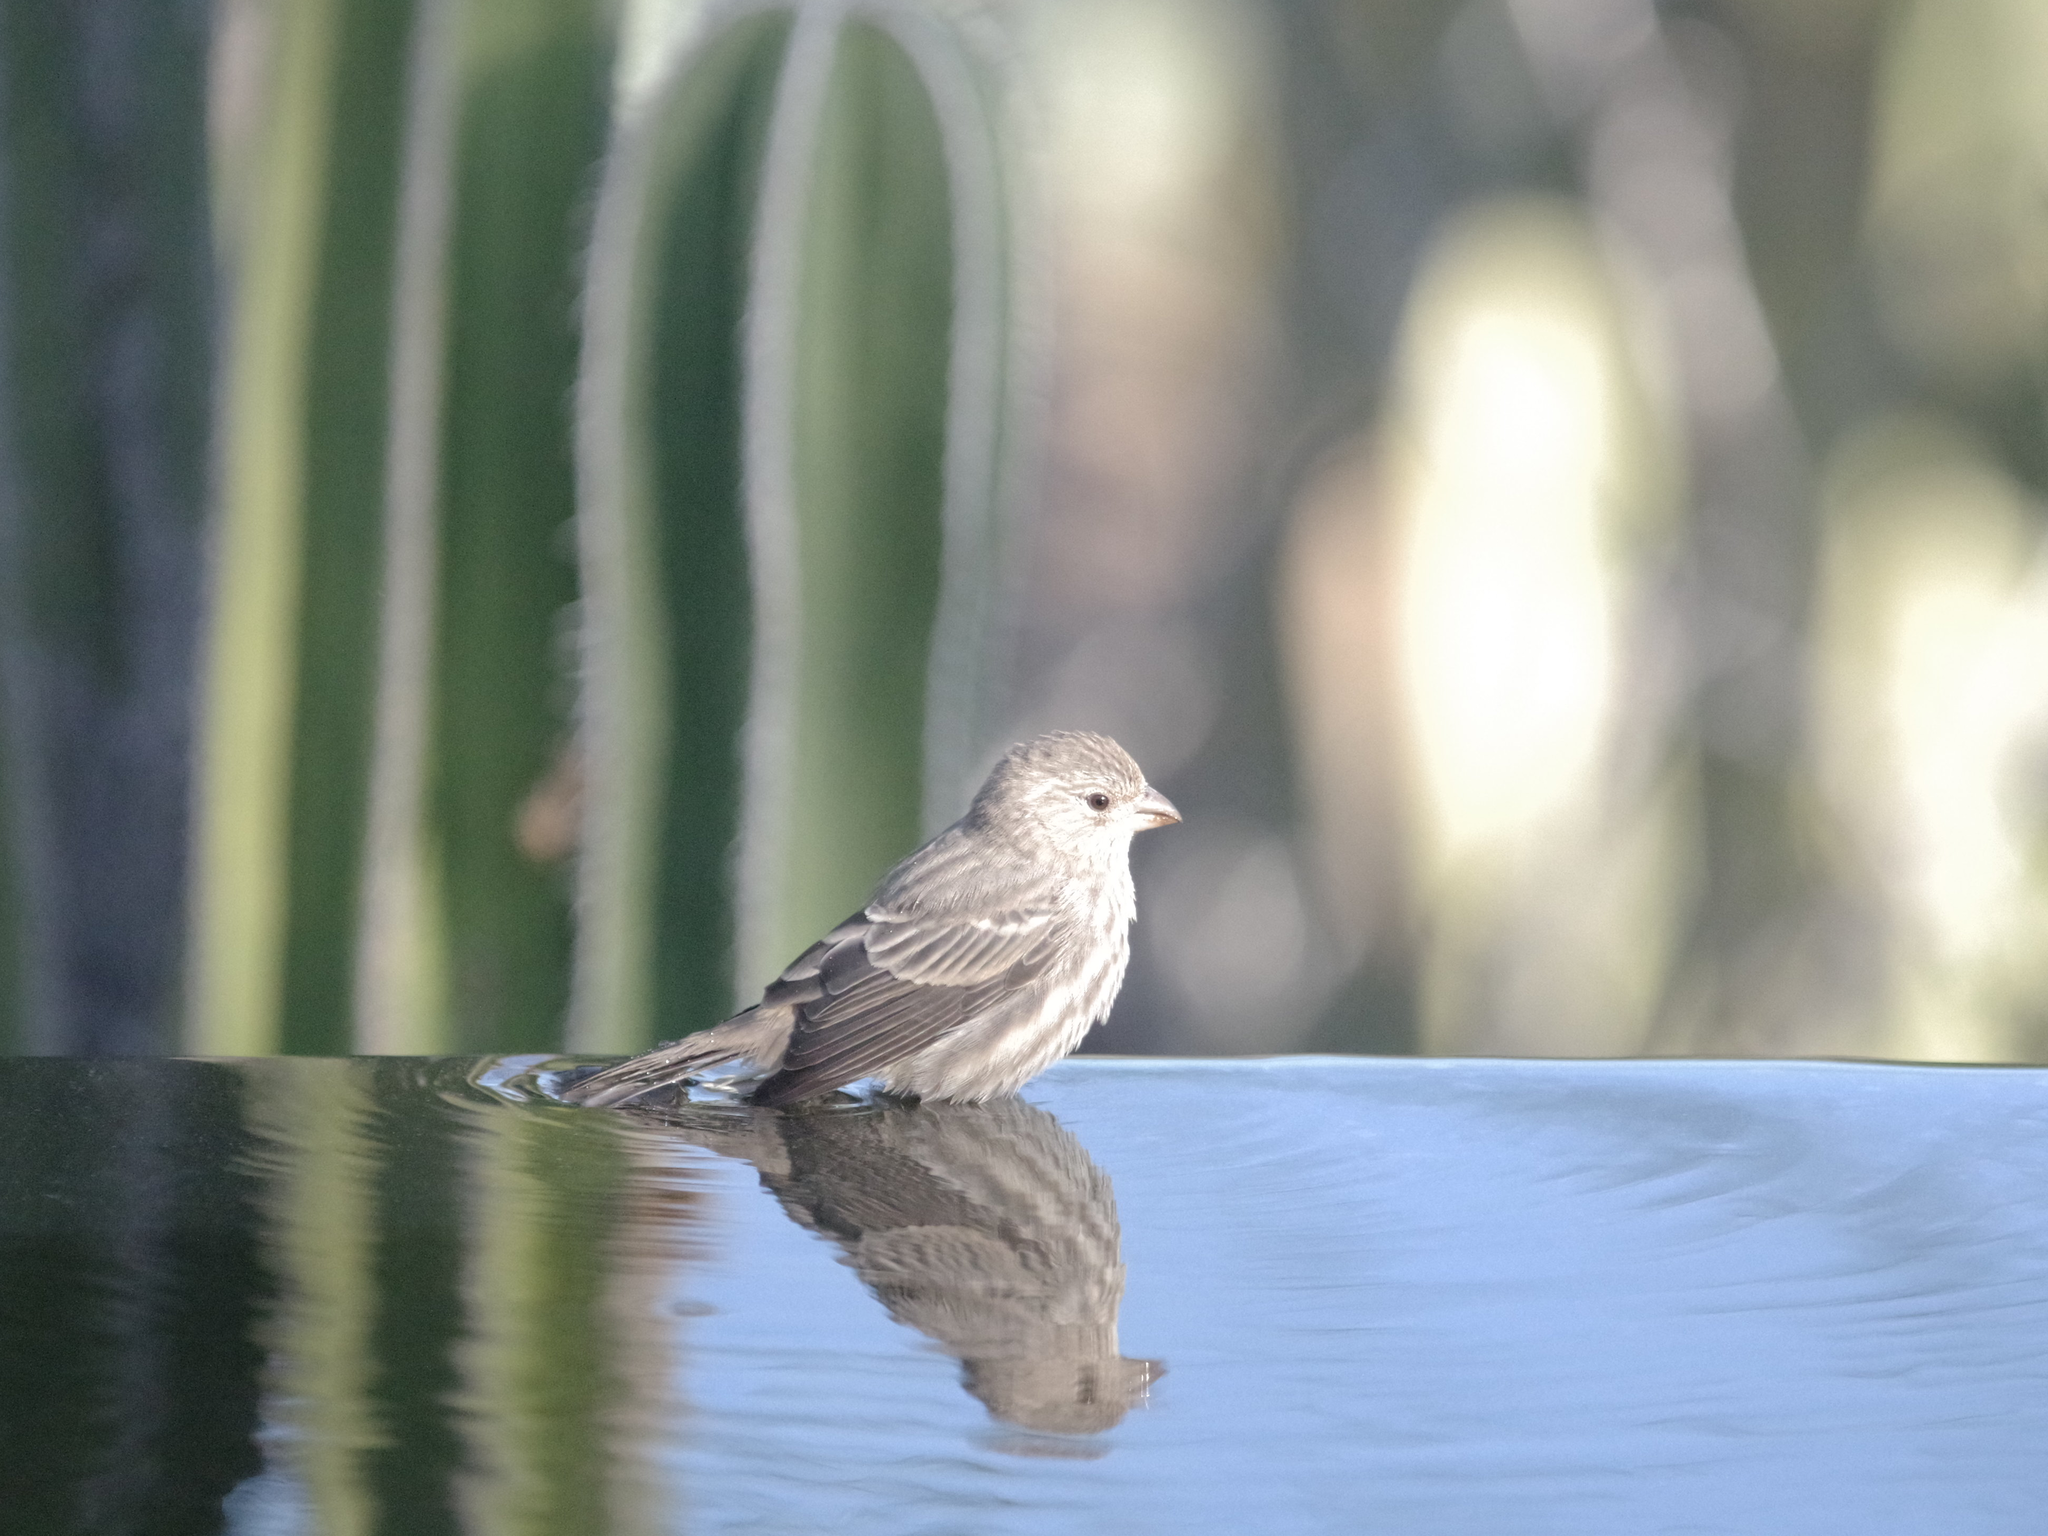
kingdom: Animalia
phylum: Chordata
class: Aves
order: Passeriformes
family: Fringillidae
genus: Haemorhous
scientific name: Haemorhous mexicanus
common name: House finch
